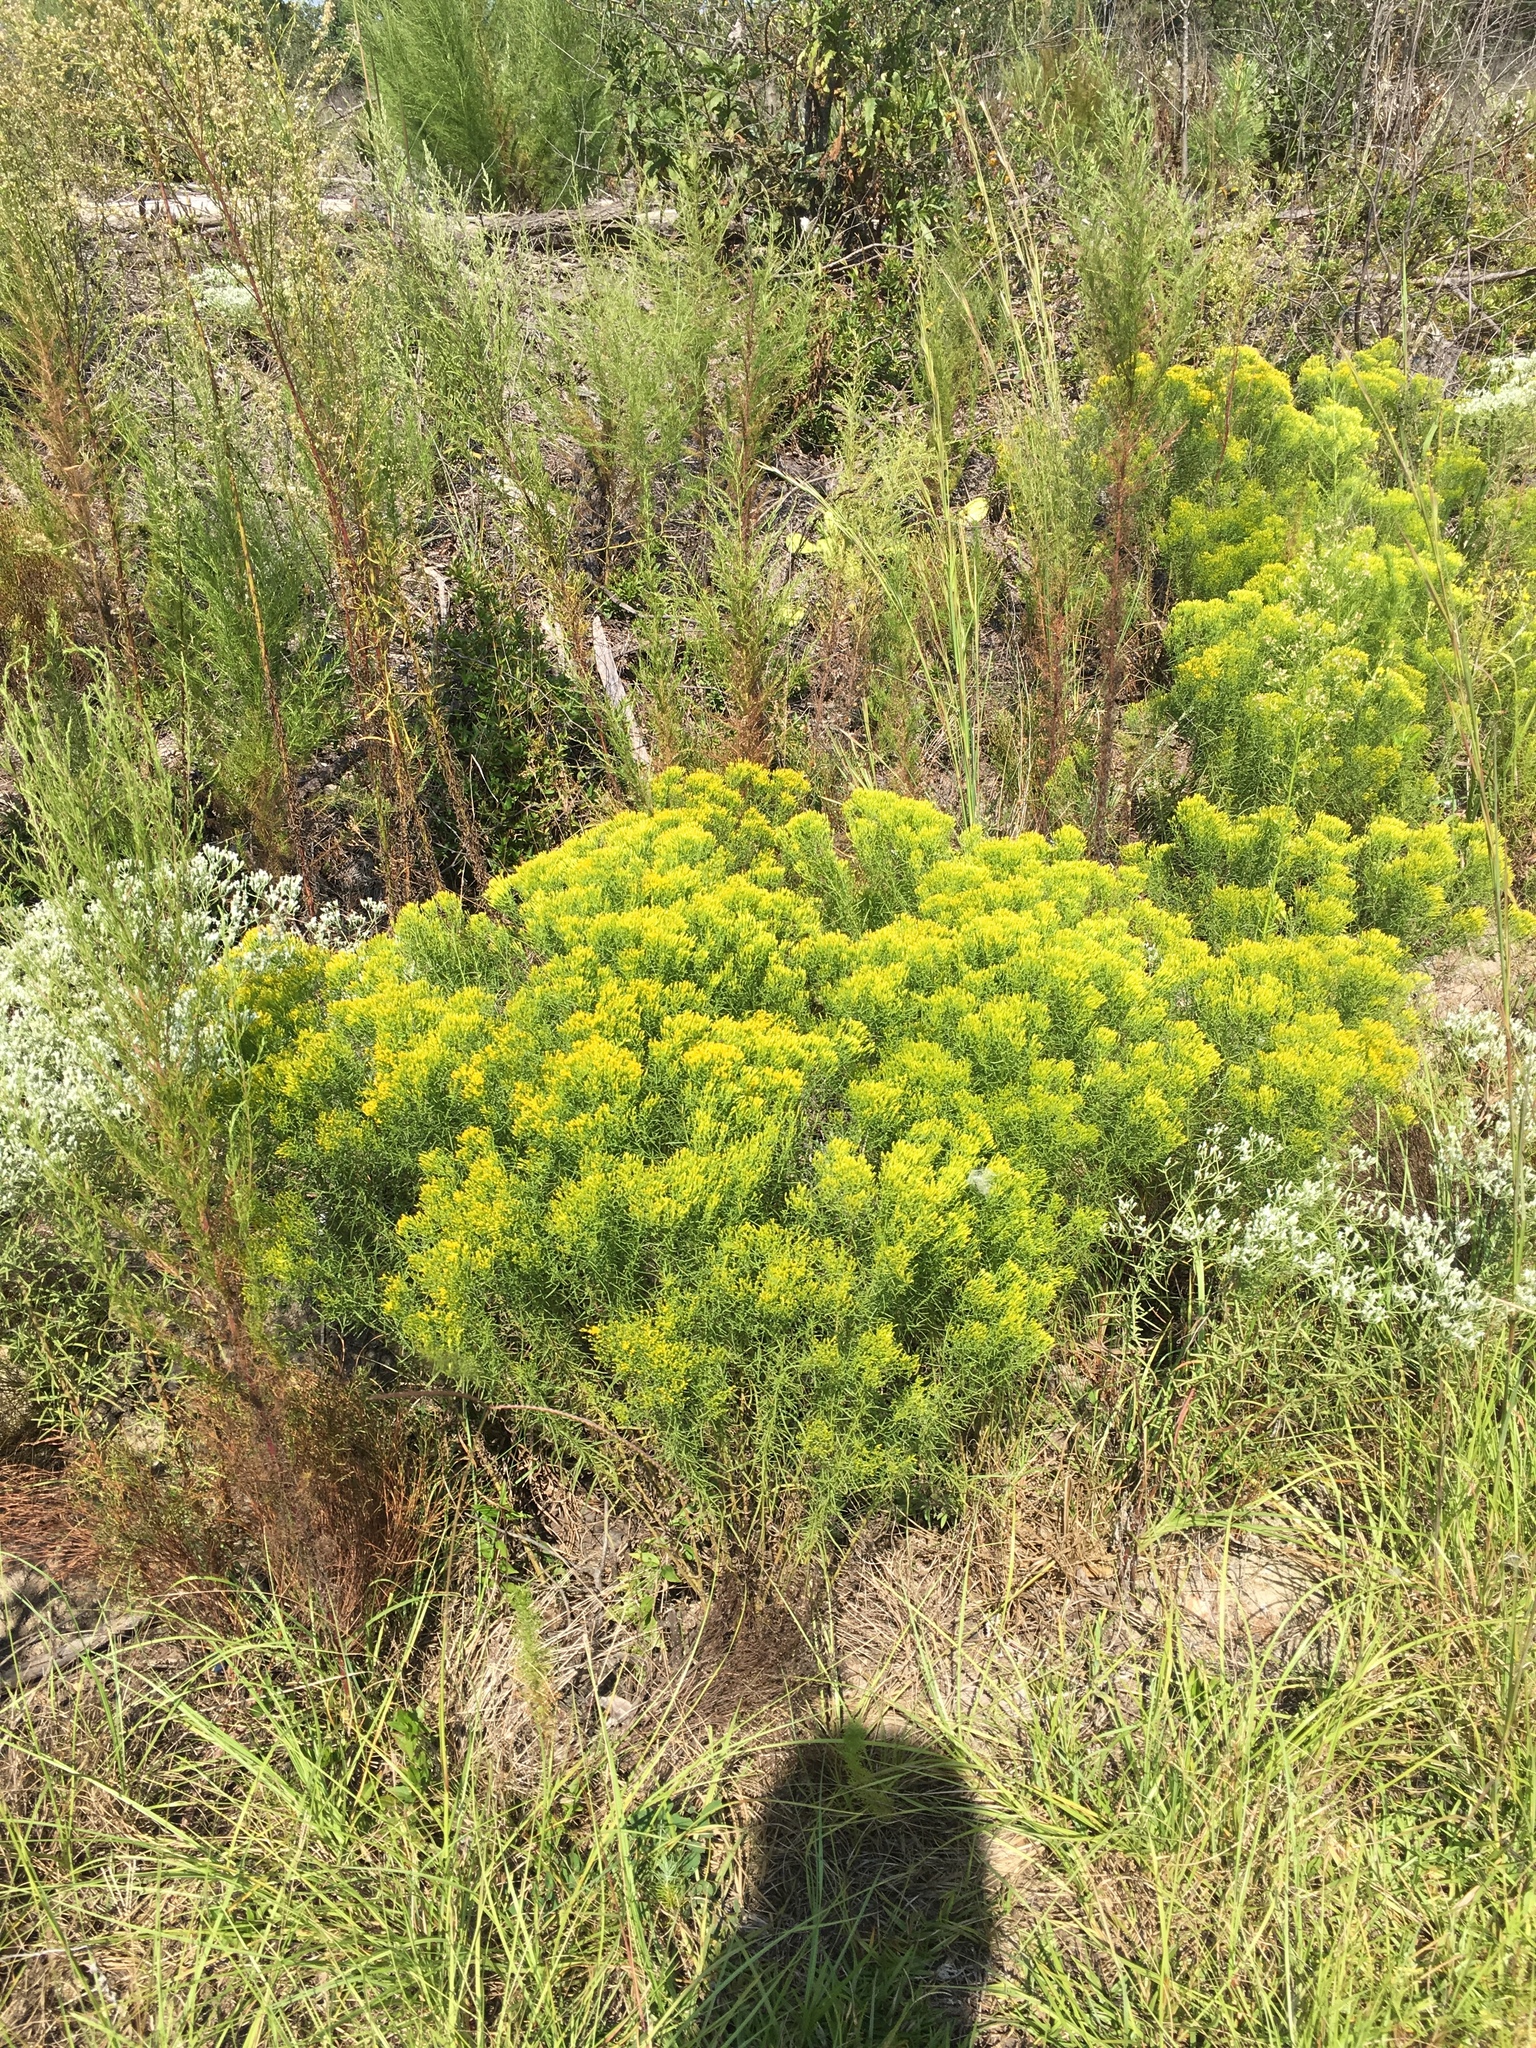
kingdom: Plantae
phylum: Tracheophyta
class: Magnoliopsida
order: Asterales
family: Asteraceae
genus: Euthamia
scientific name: Euthamia caroliniana
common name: Coastal plain goldentop
